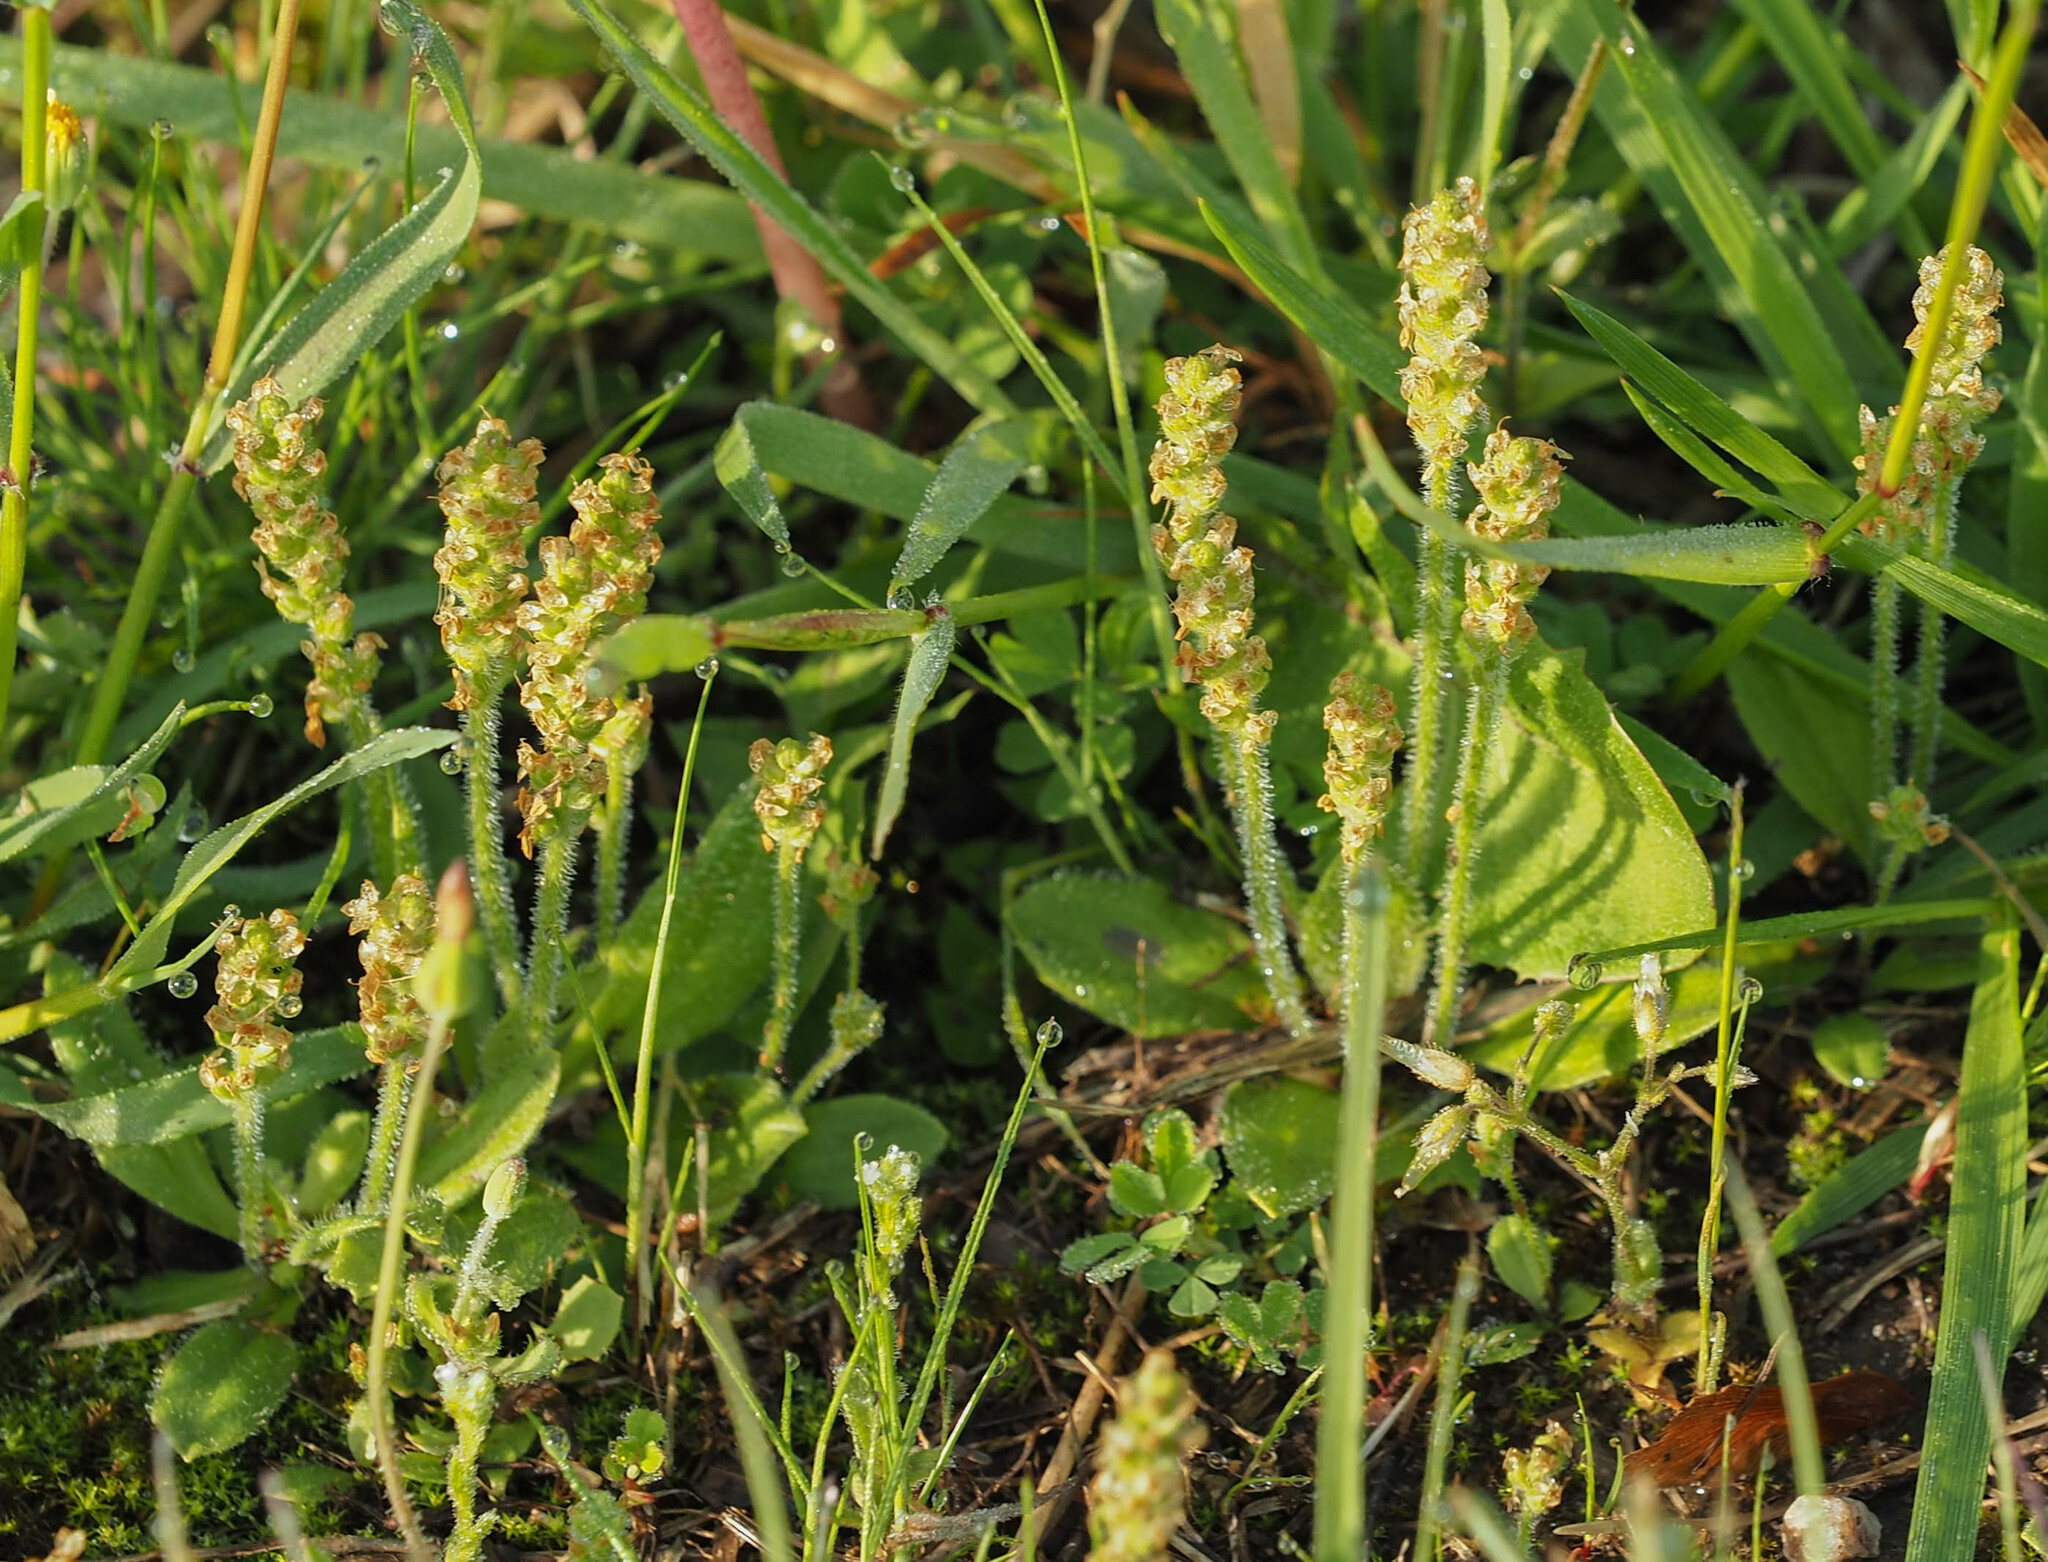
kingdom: Plantae
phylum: Tracheophyta
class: Magnoliopsida
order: Lamiales
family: Plantaginaceae
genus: Plantago
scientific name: Plantago virginica
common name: Hoary plantain
